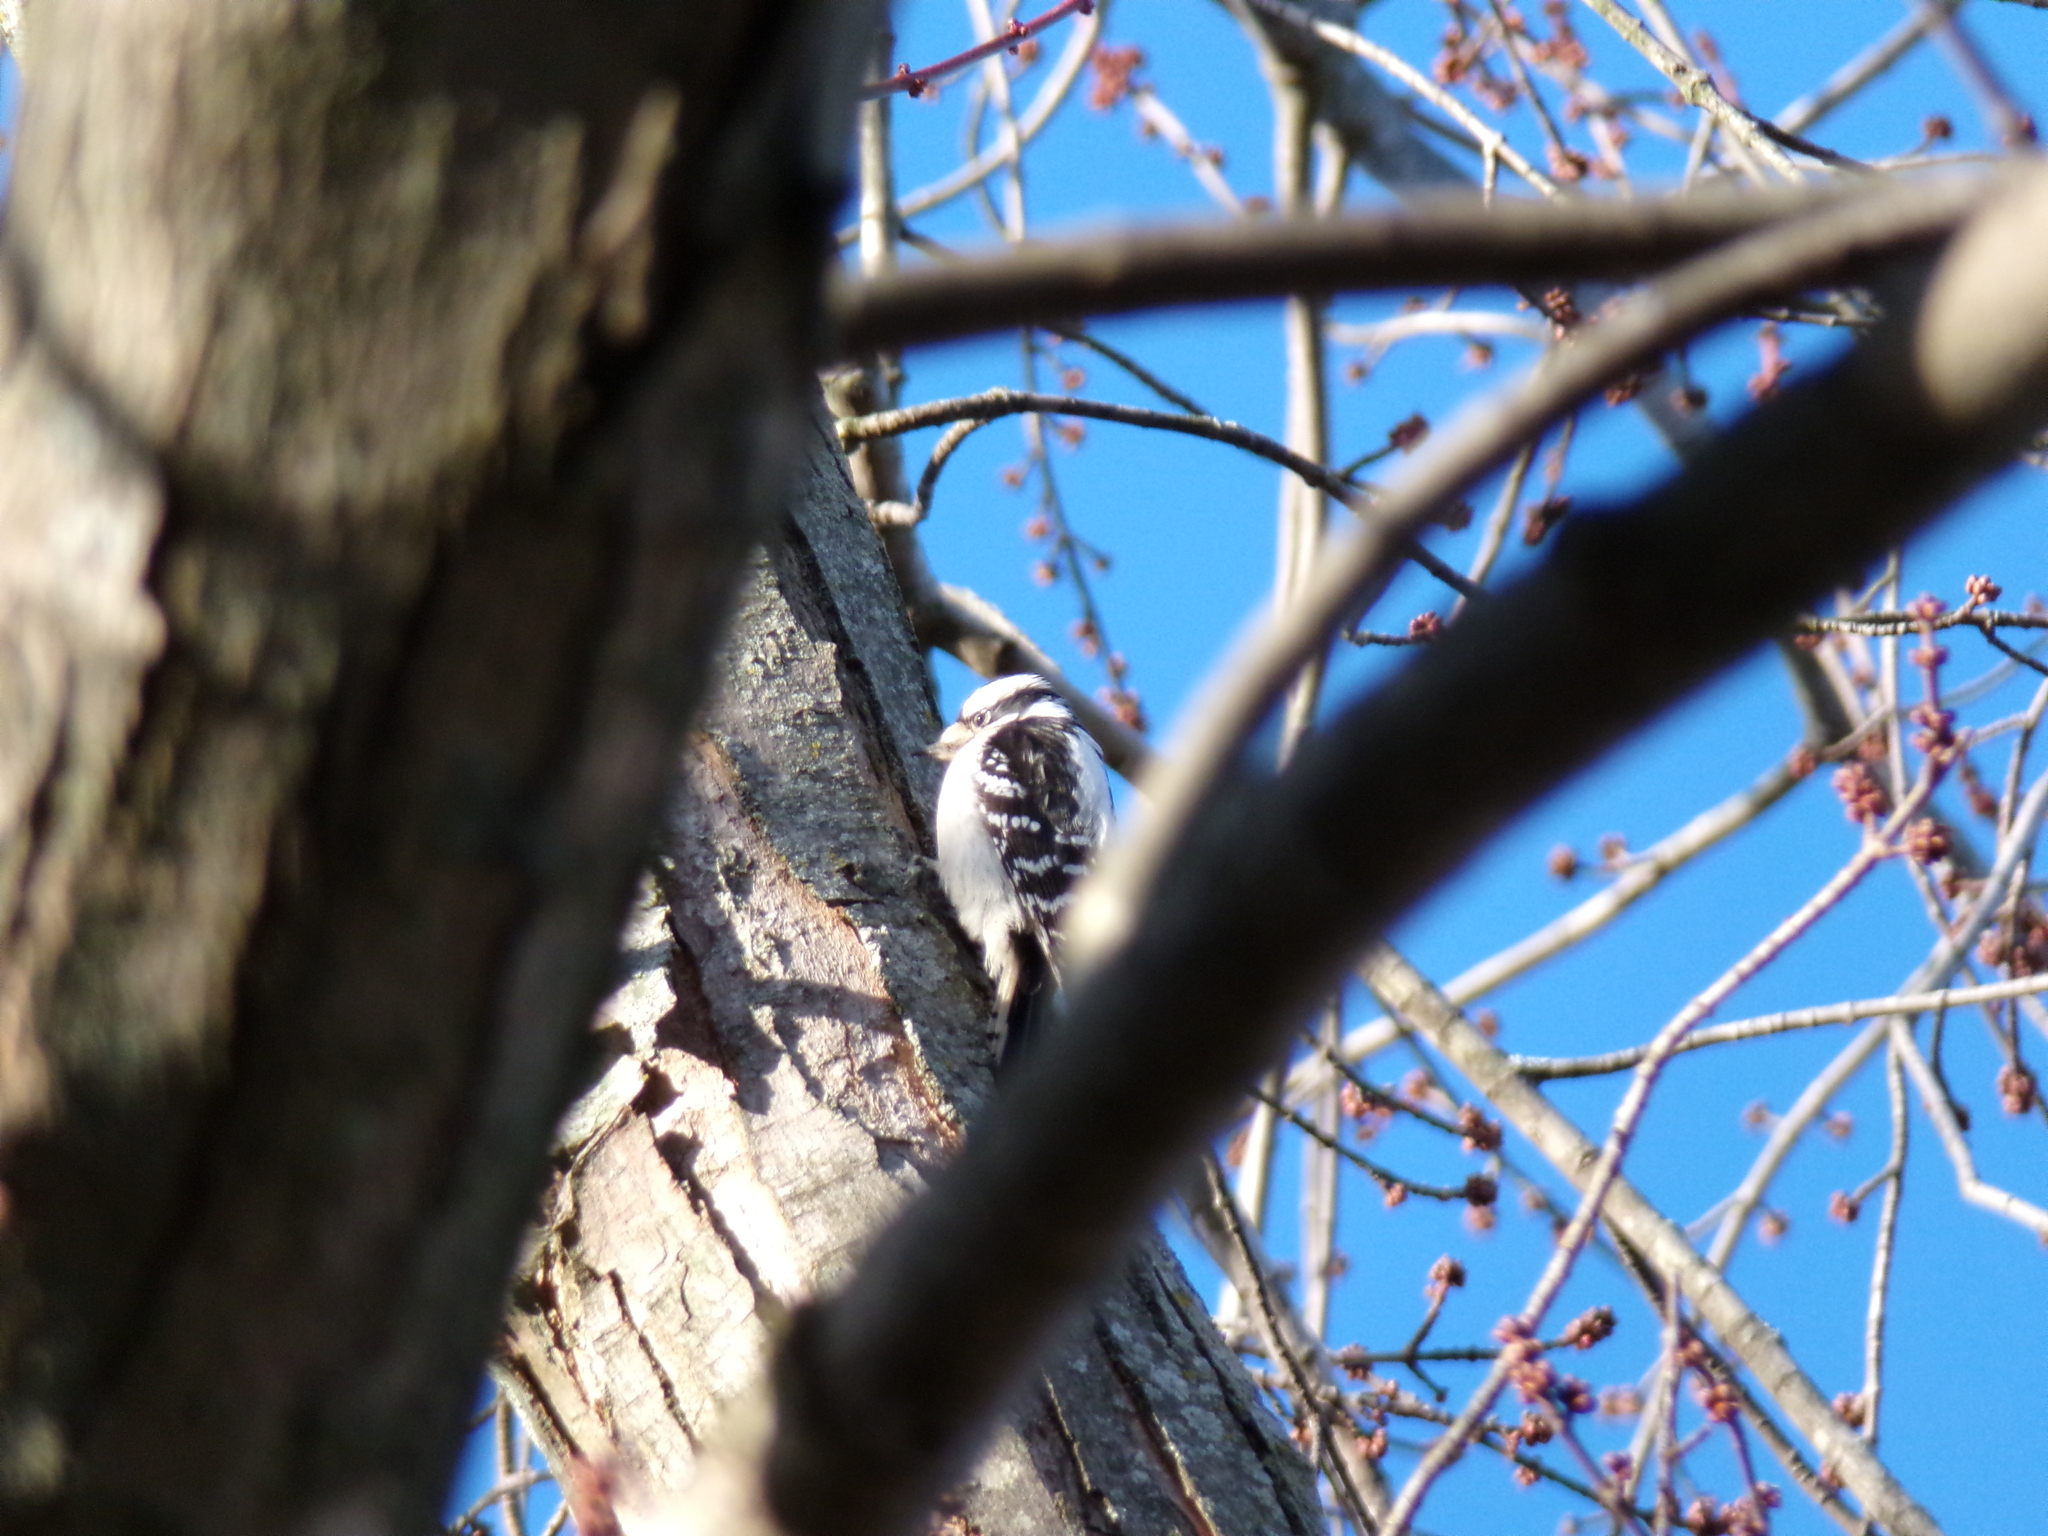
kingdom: Animalia
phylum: Chordata
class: Aves
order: Piciformes
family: Picidae
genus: Dryobates
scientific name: Dryobates pubescens
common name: Downy woodpecker
